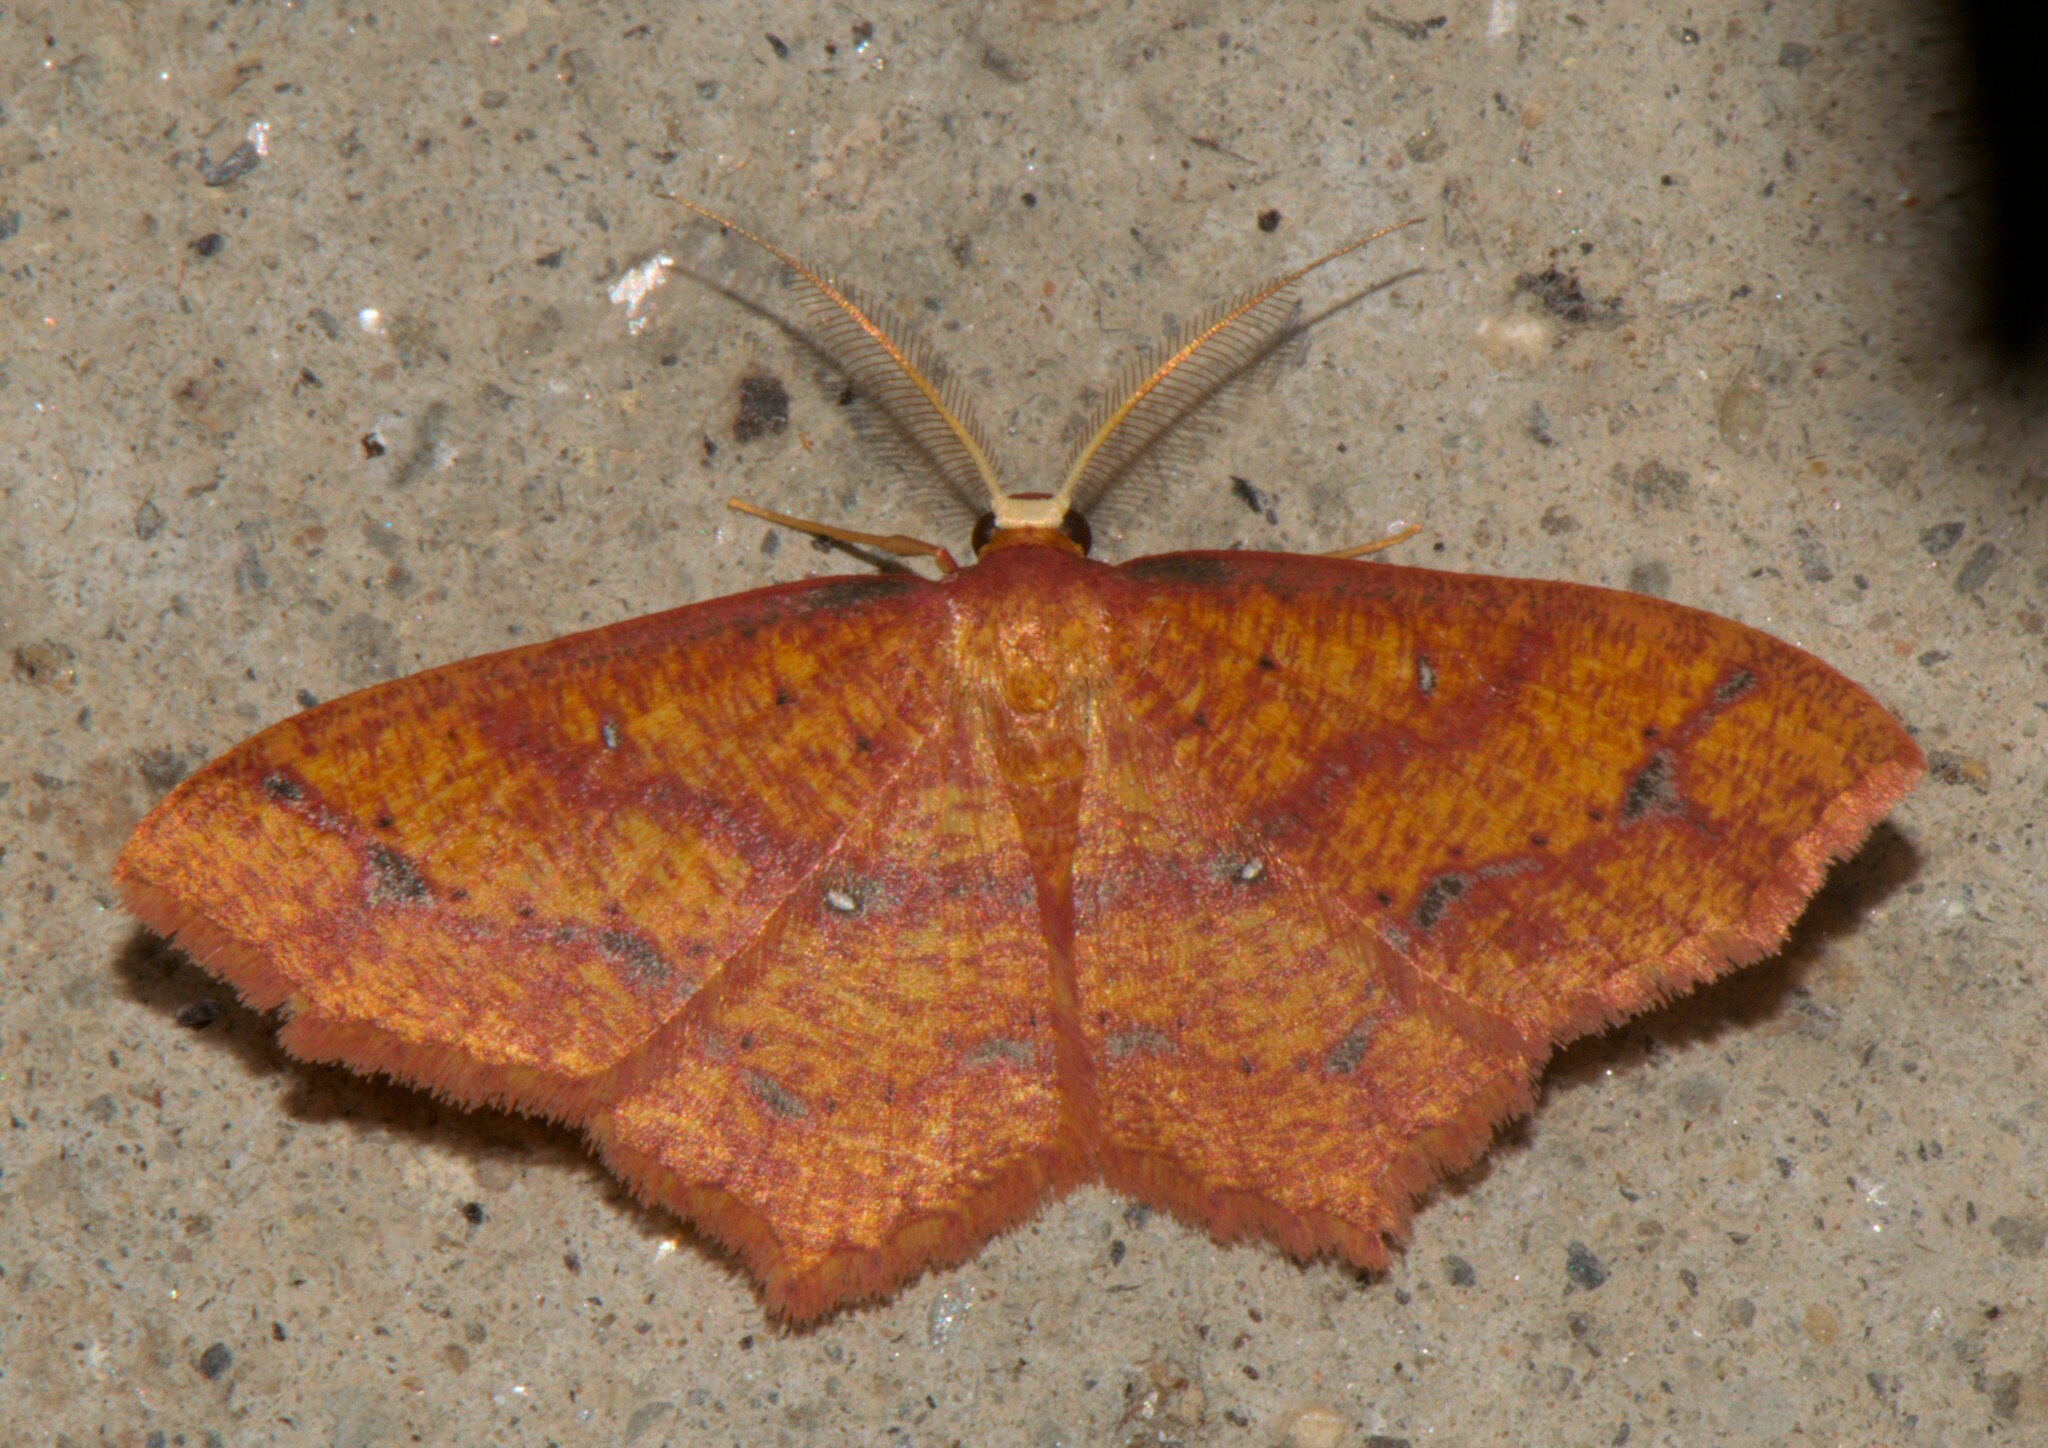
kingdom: Animalia
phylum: Arthropoda
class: Insecta
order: Lepidoptera
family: Geometridae
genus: Synegiodes
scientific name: Synegiodes hyriaria
